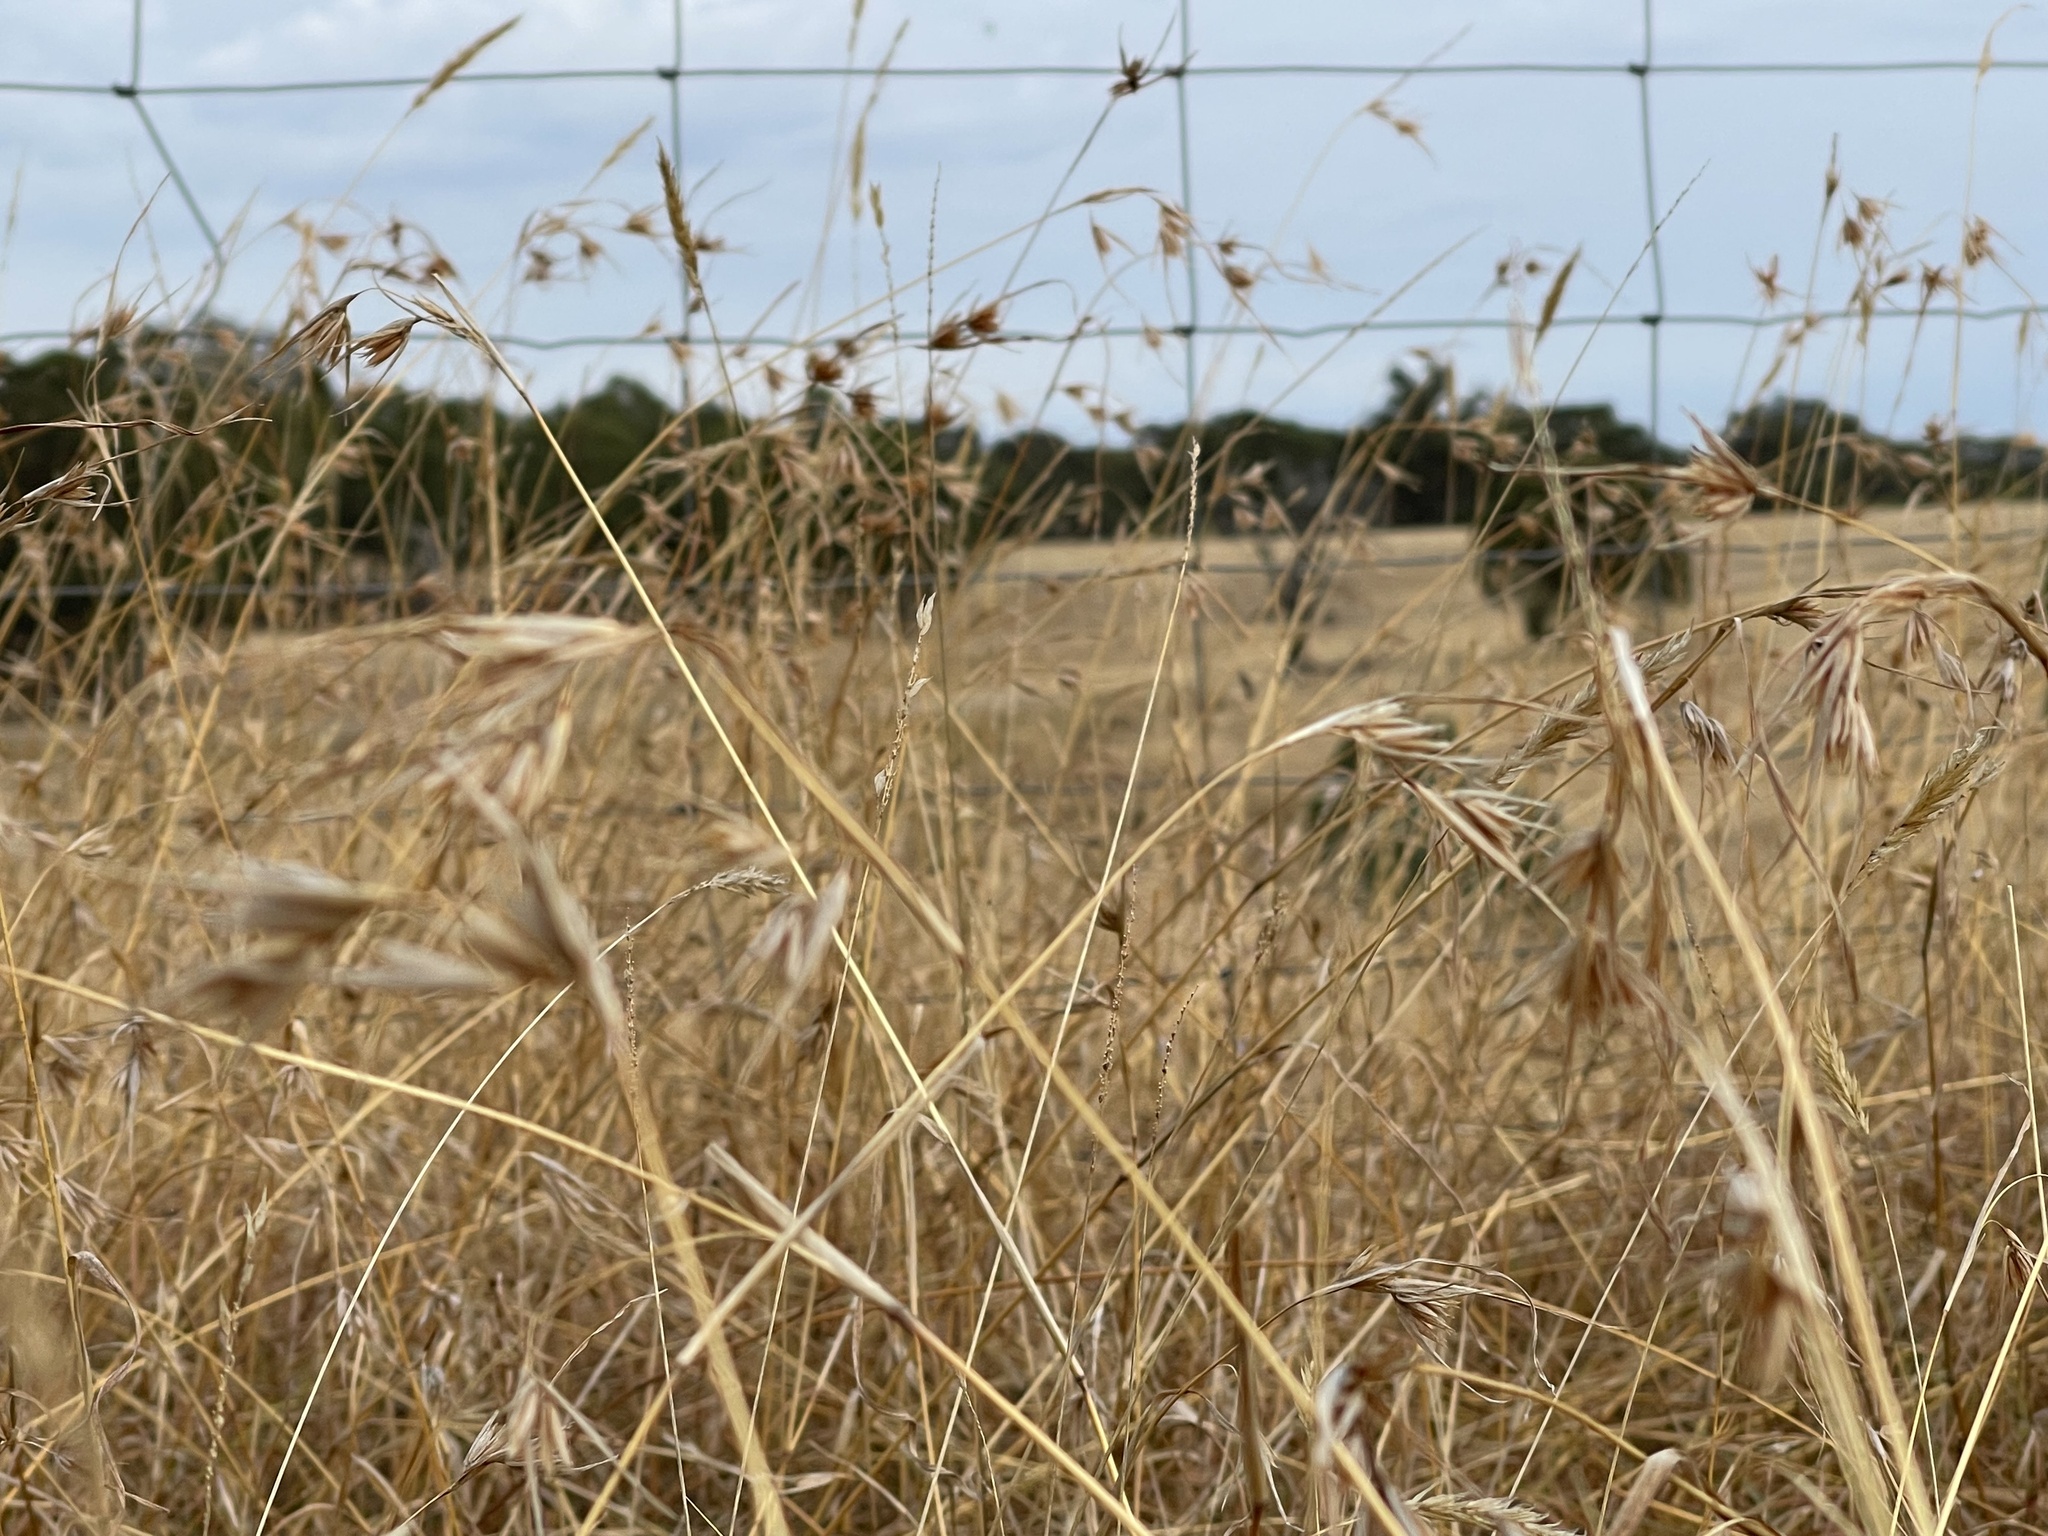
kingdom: Plantae
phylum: Tracheophyta
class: Liliopsida
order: Poales
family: Poaceae
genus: Themeda
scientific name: Themeda triandra
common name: Kangaroo grass
